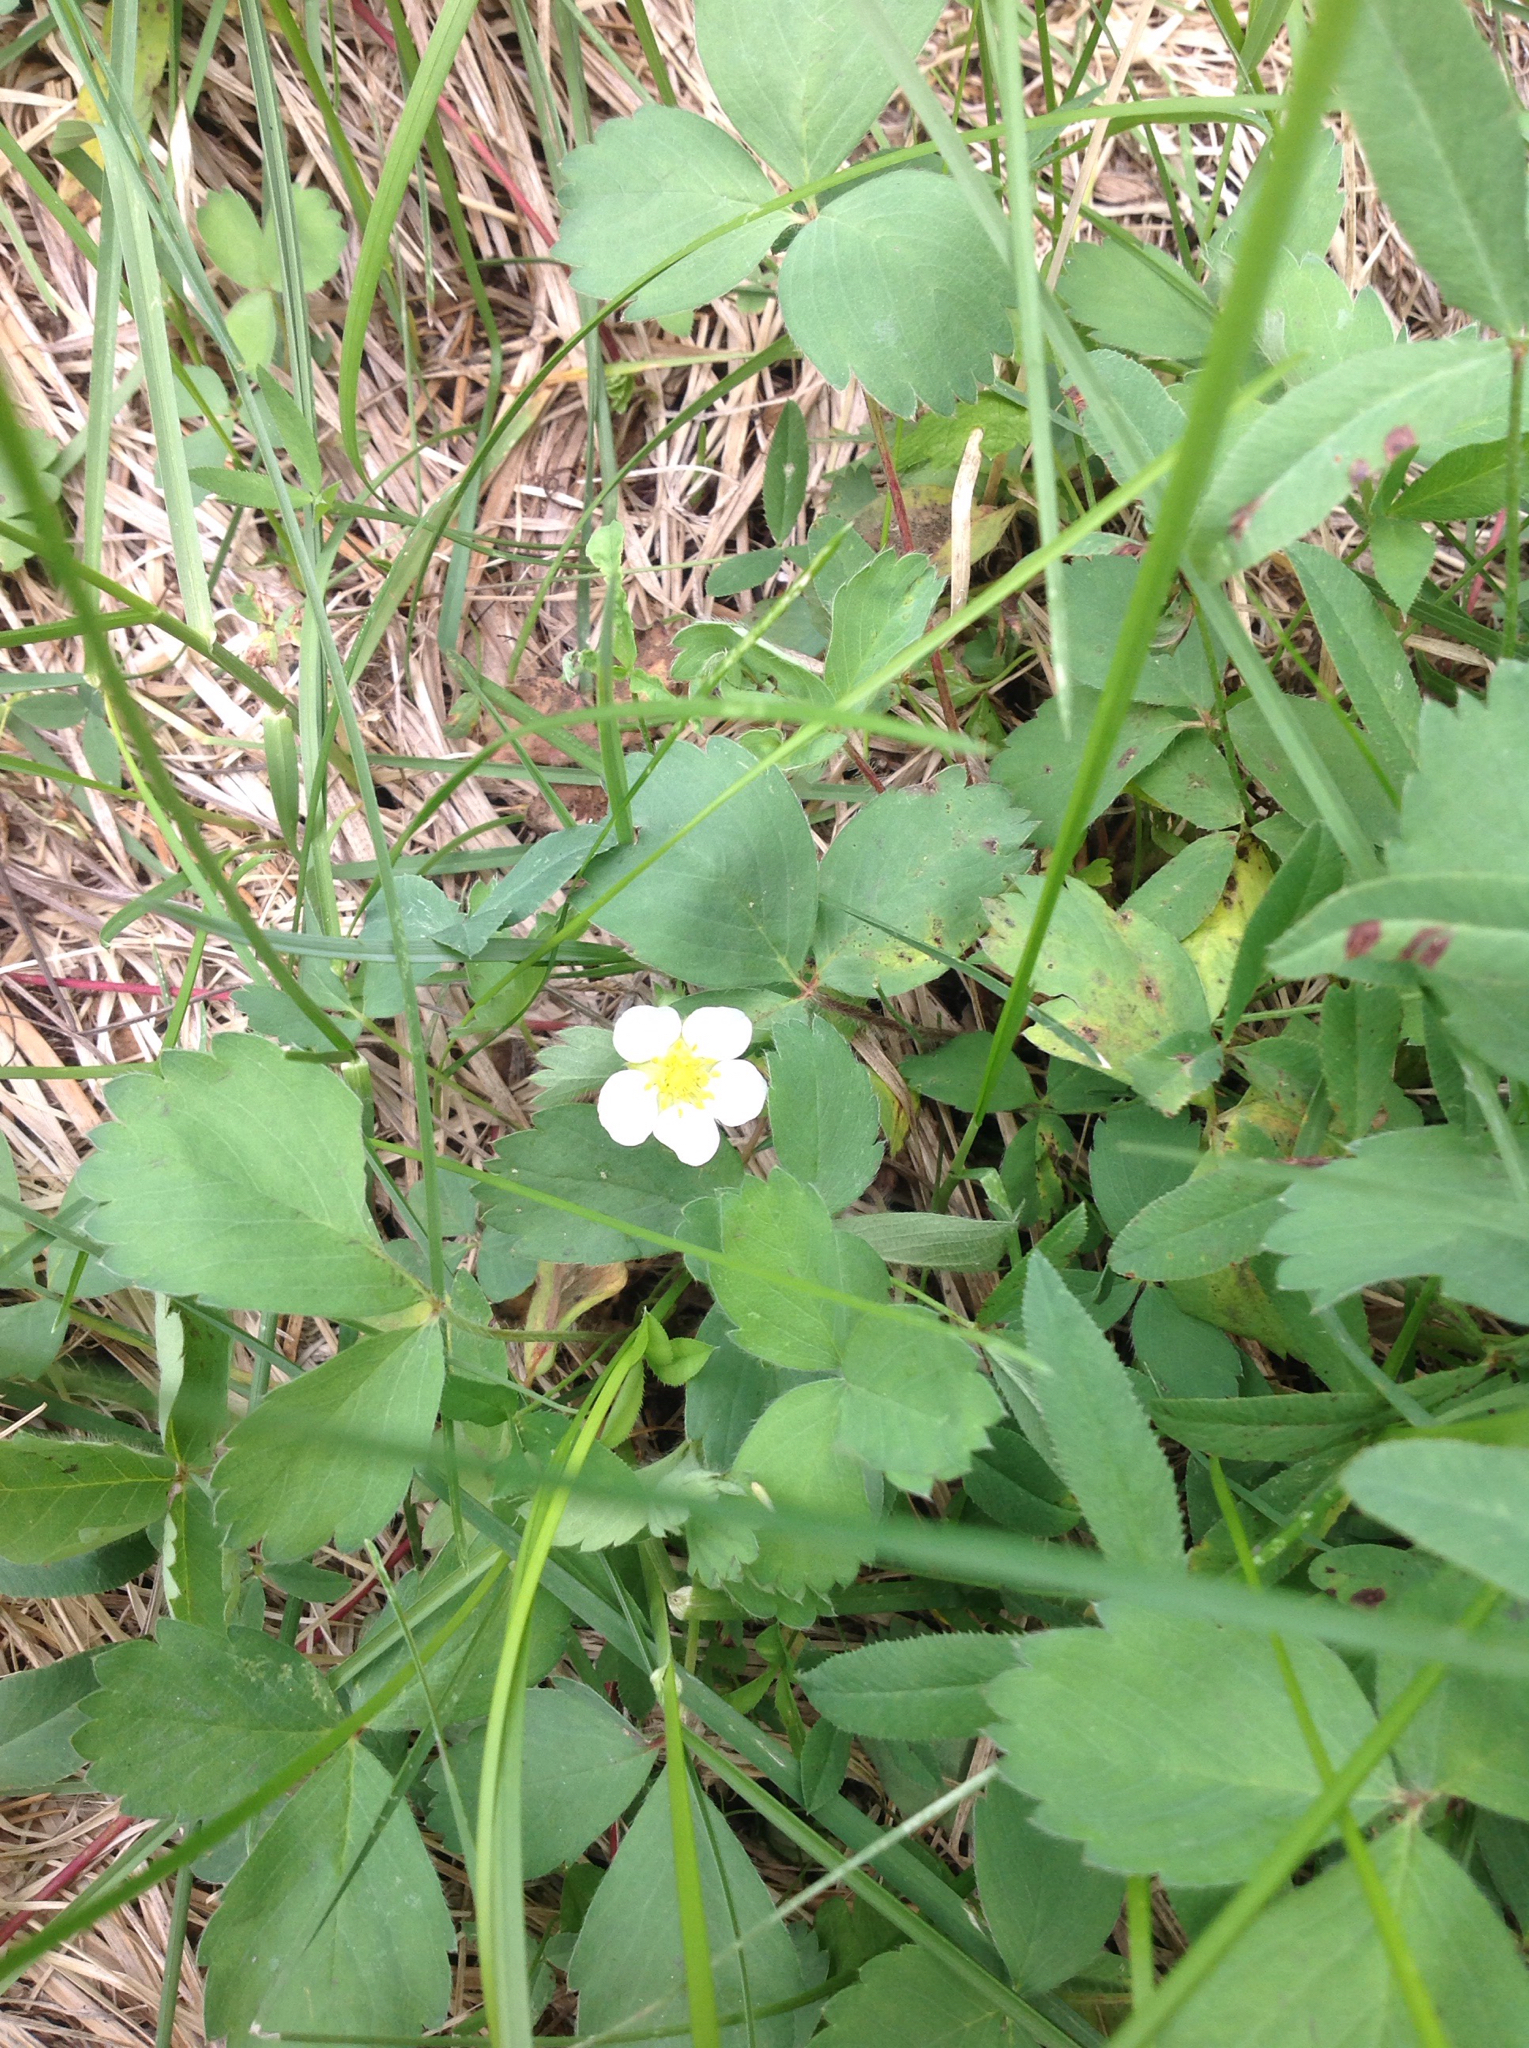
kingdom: Plantae
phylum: Tracheophyta
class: Magnoliopsida
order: Rosales
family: Rosaceae
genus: Fragaria
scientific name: Fragaria virginiana
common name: Thickleaved wild strawberry
